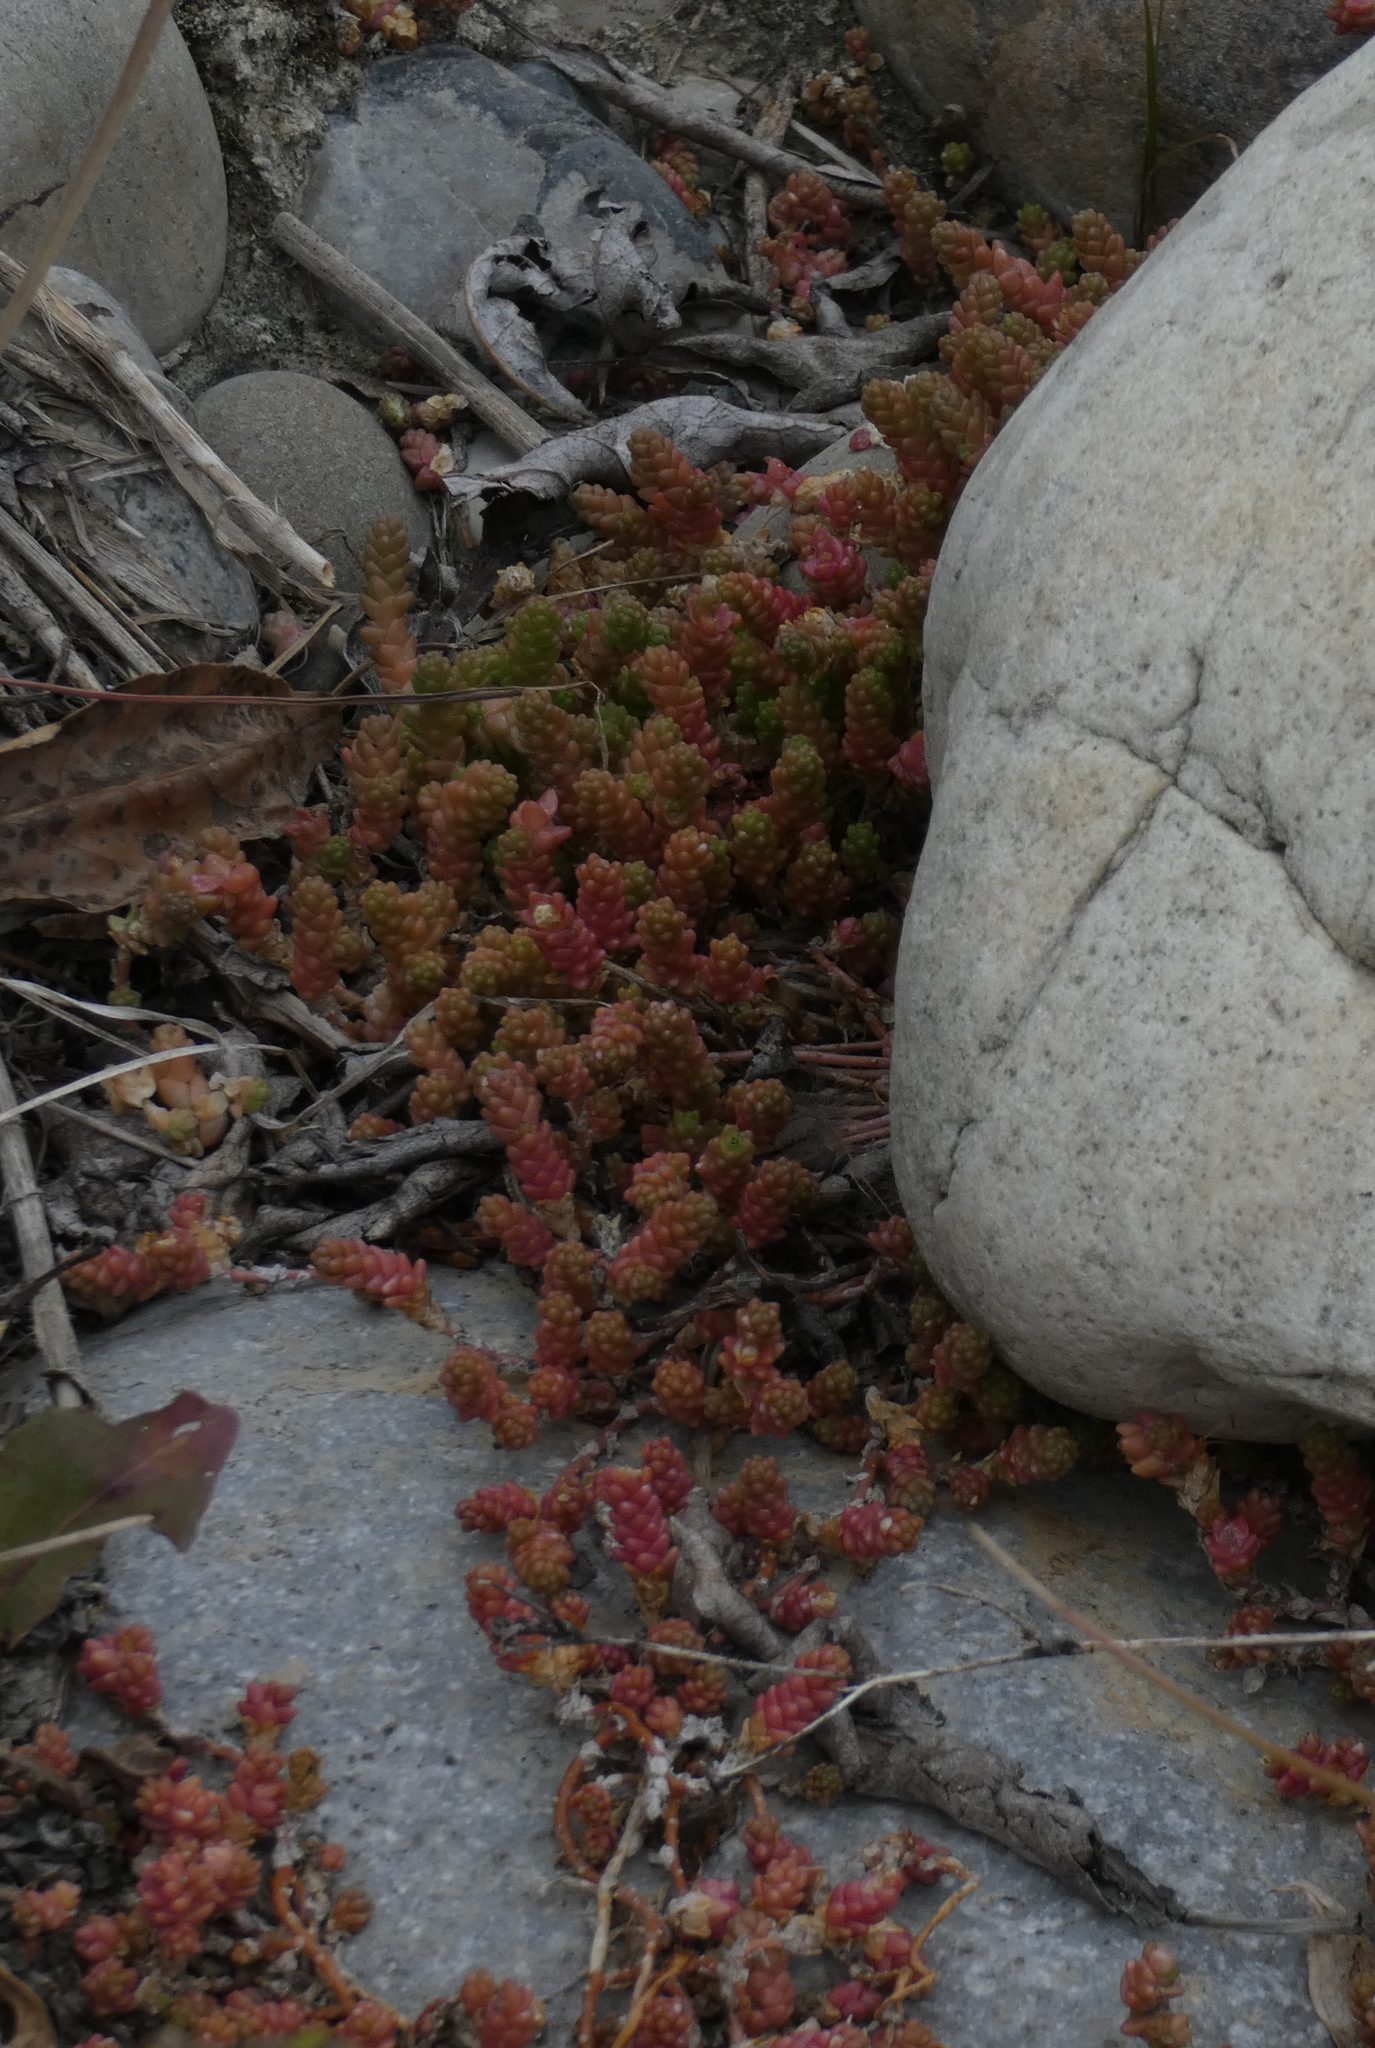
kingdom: Plantae
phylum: Tracheophyta
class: Magnoliopsida
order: Saxifragales
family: Crassulaceae
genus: Sedum
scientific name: Sedum acre
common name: Biting stonecrop
